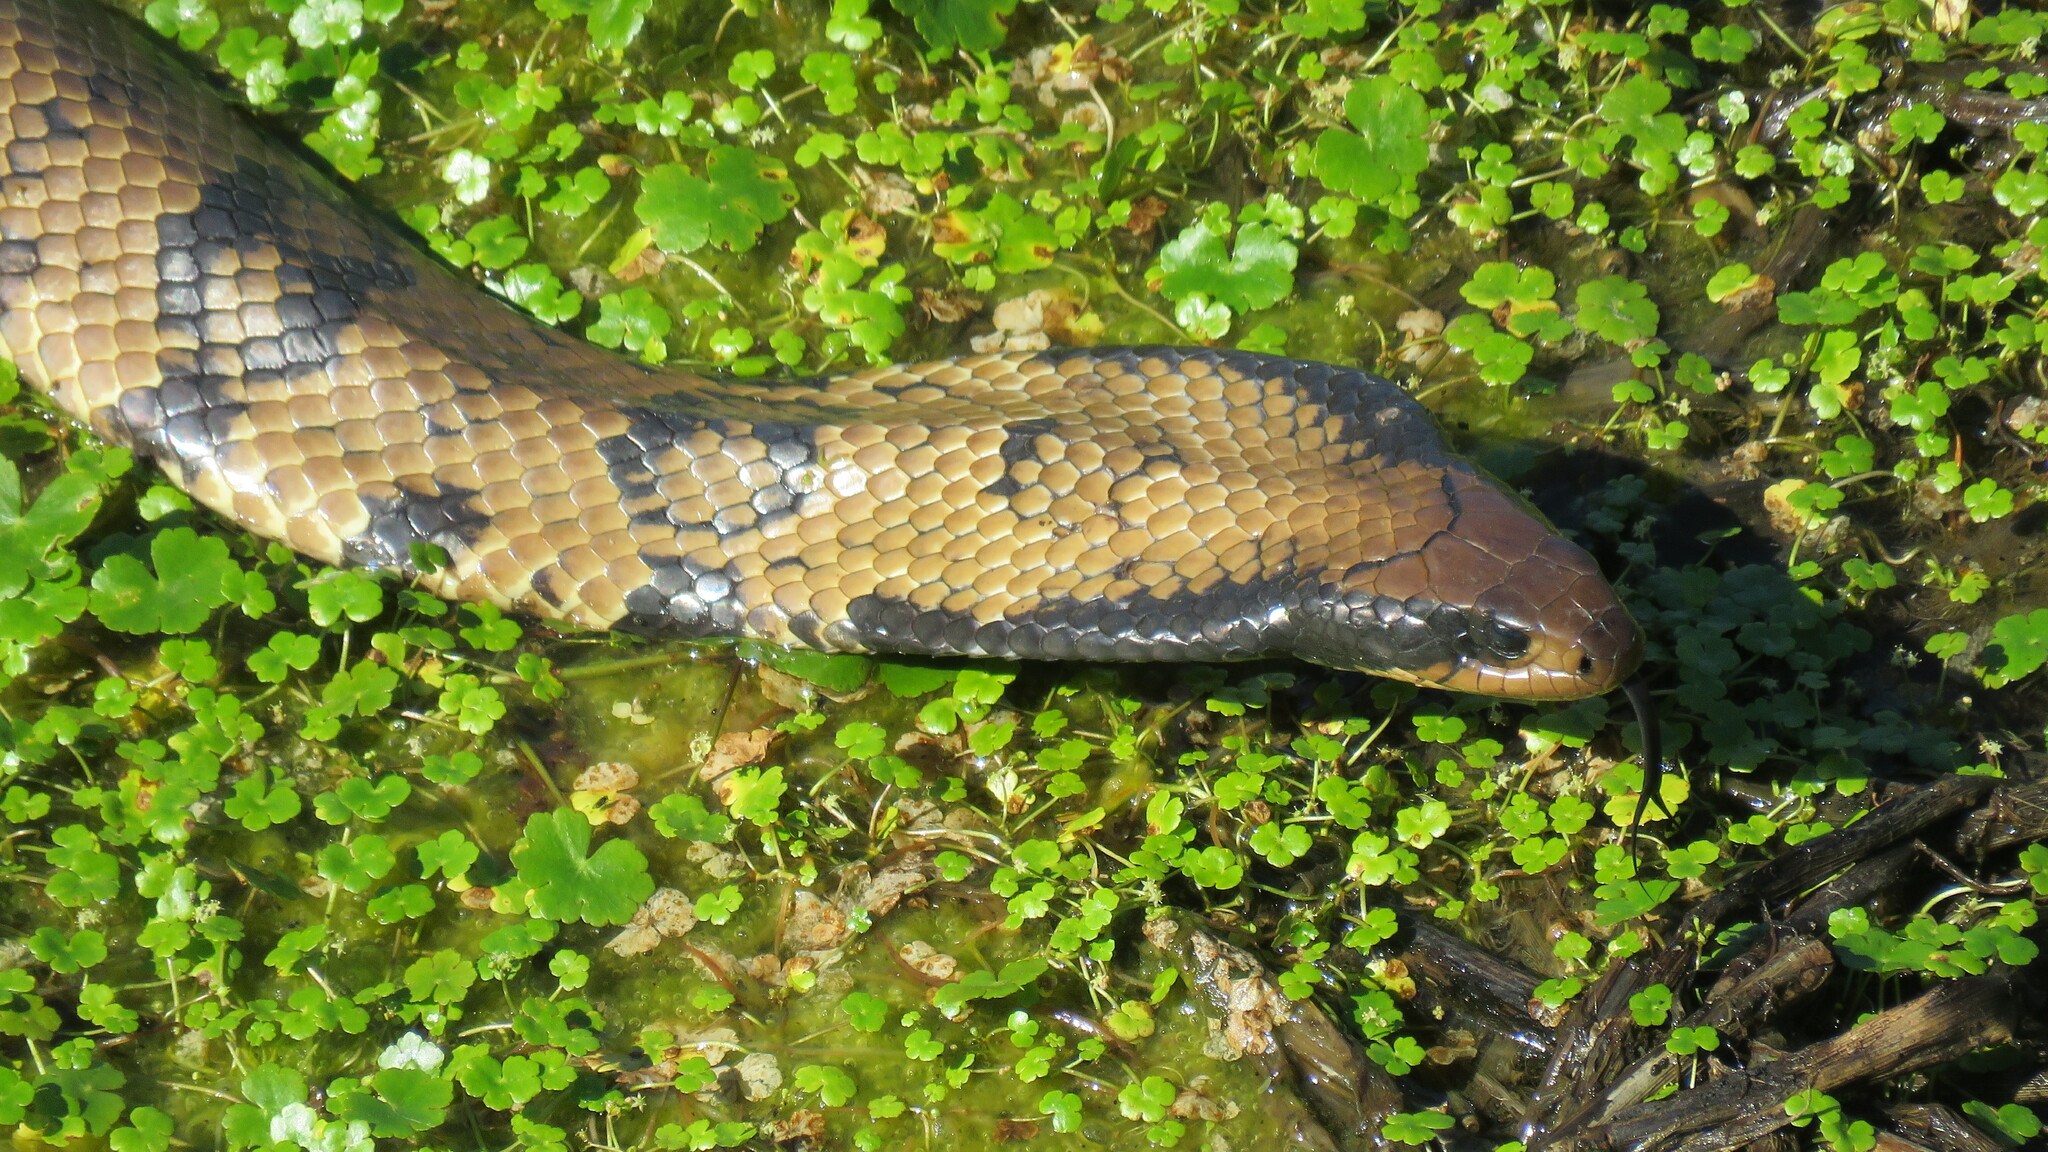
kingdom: Animalia
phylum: Chordata
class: Squamata
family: Colubridae
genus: Hydrodynastes
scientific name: Hydrodynastes gigas
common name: False water cobra
